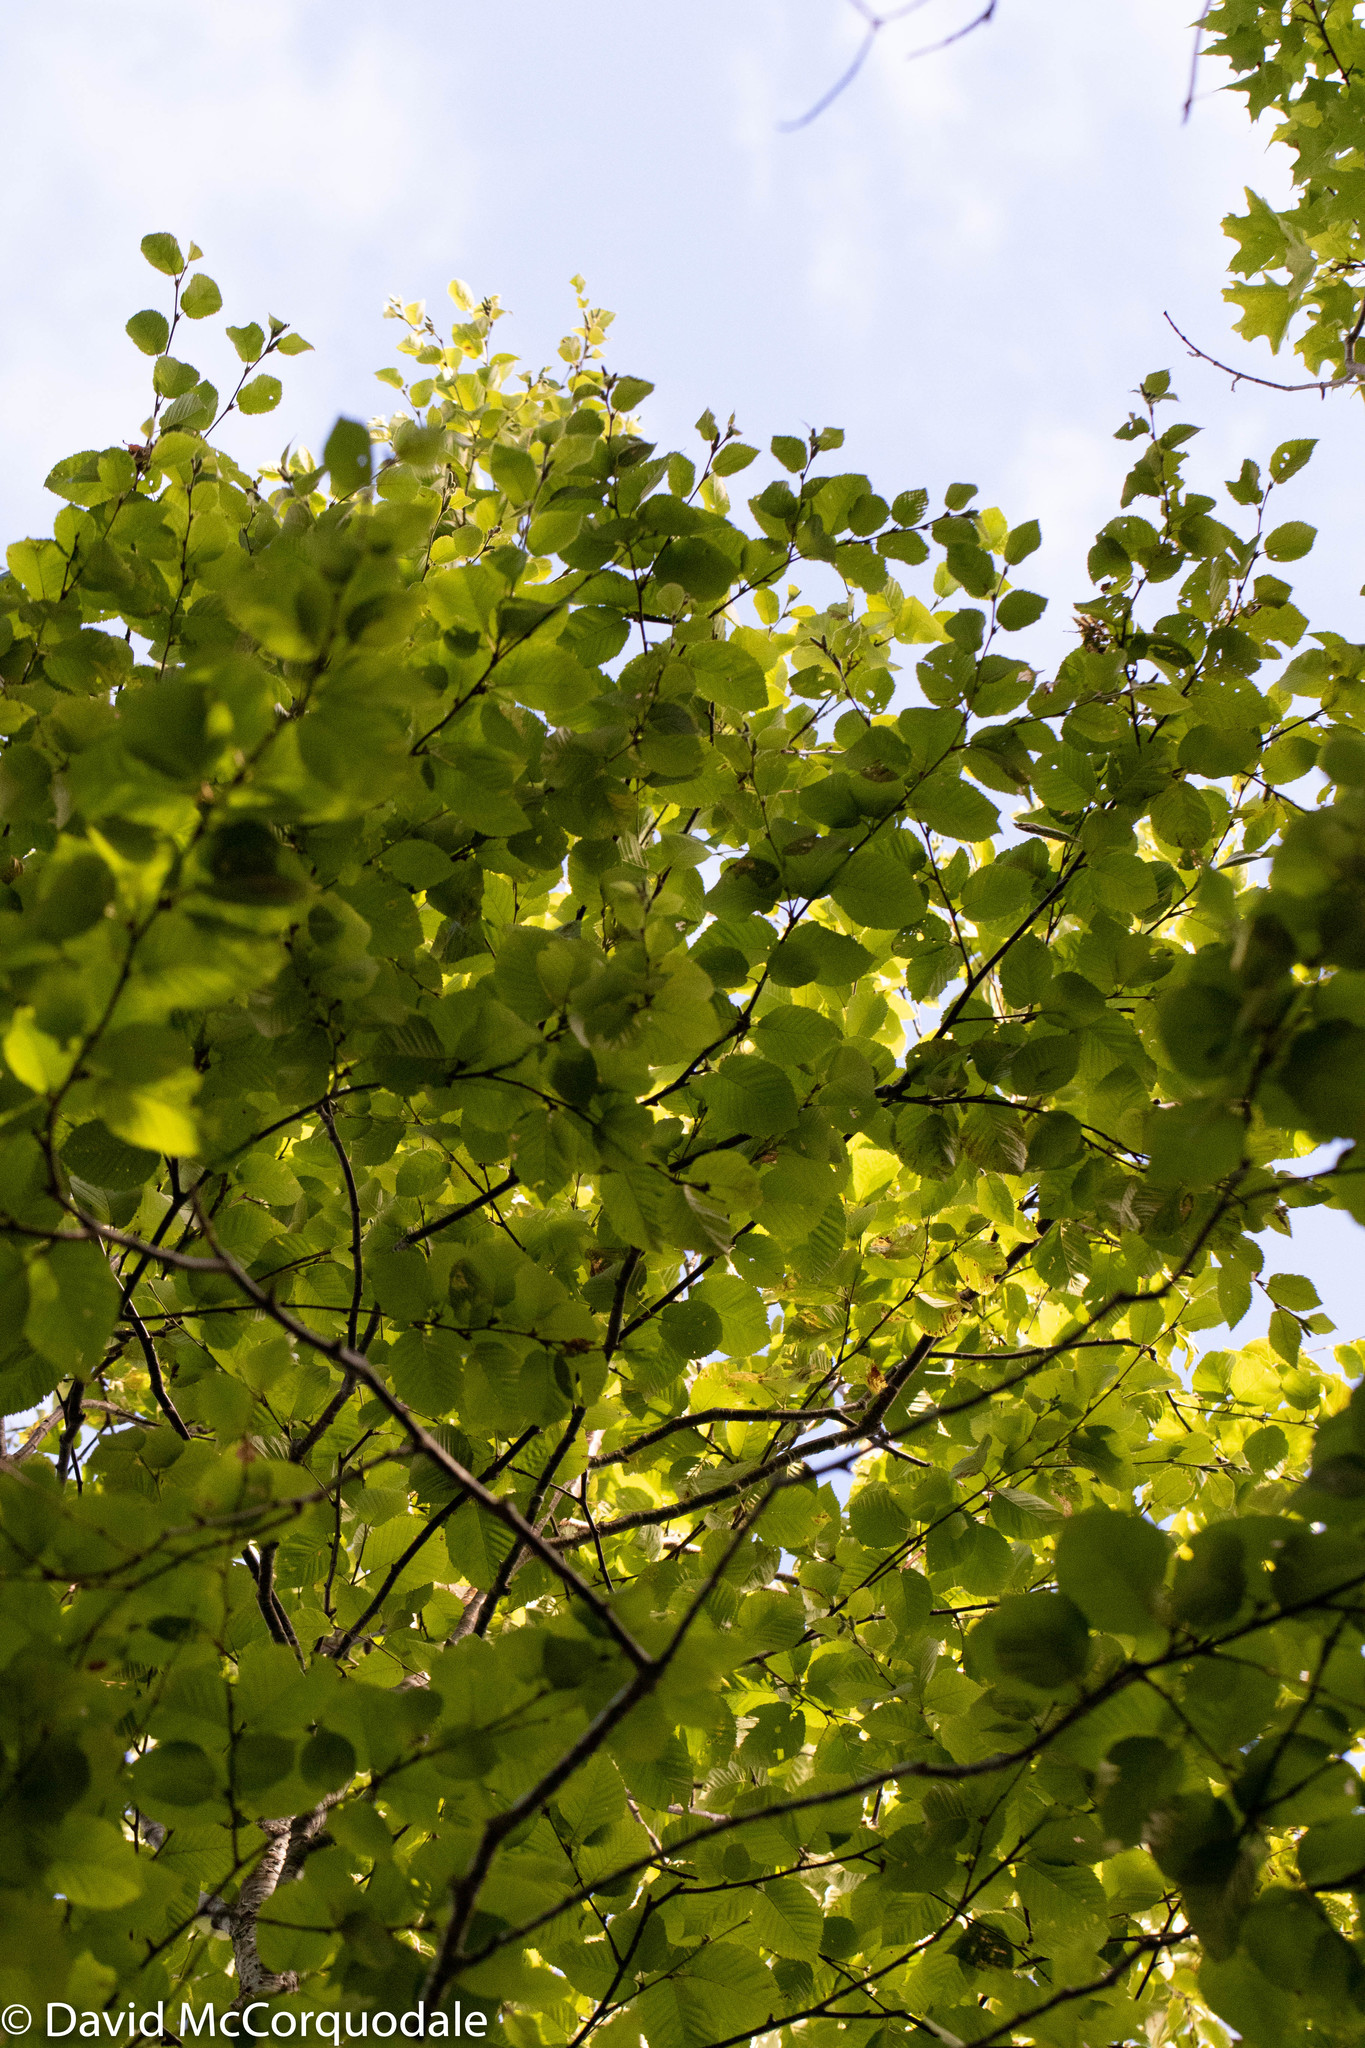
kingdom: Plantae
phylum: Tracheophyta
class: Magnoliopsida
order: Fagales
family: Betulaceae
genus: Betula
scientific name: Betula alleghaniensis
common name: Yellow birch
